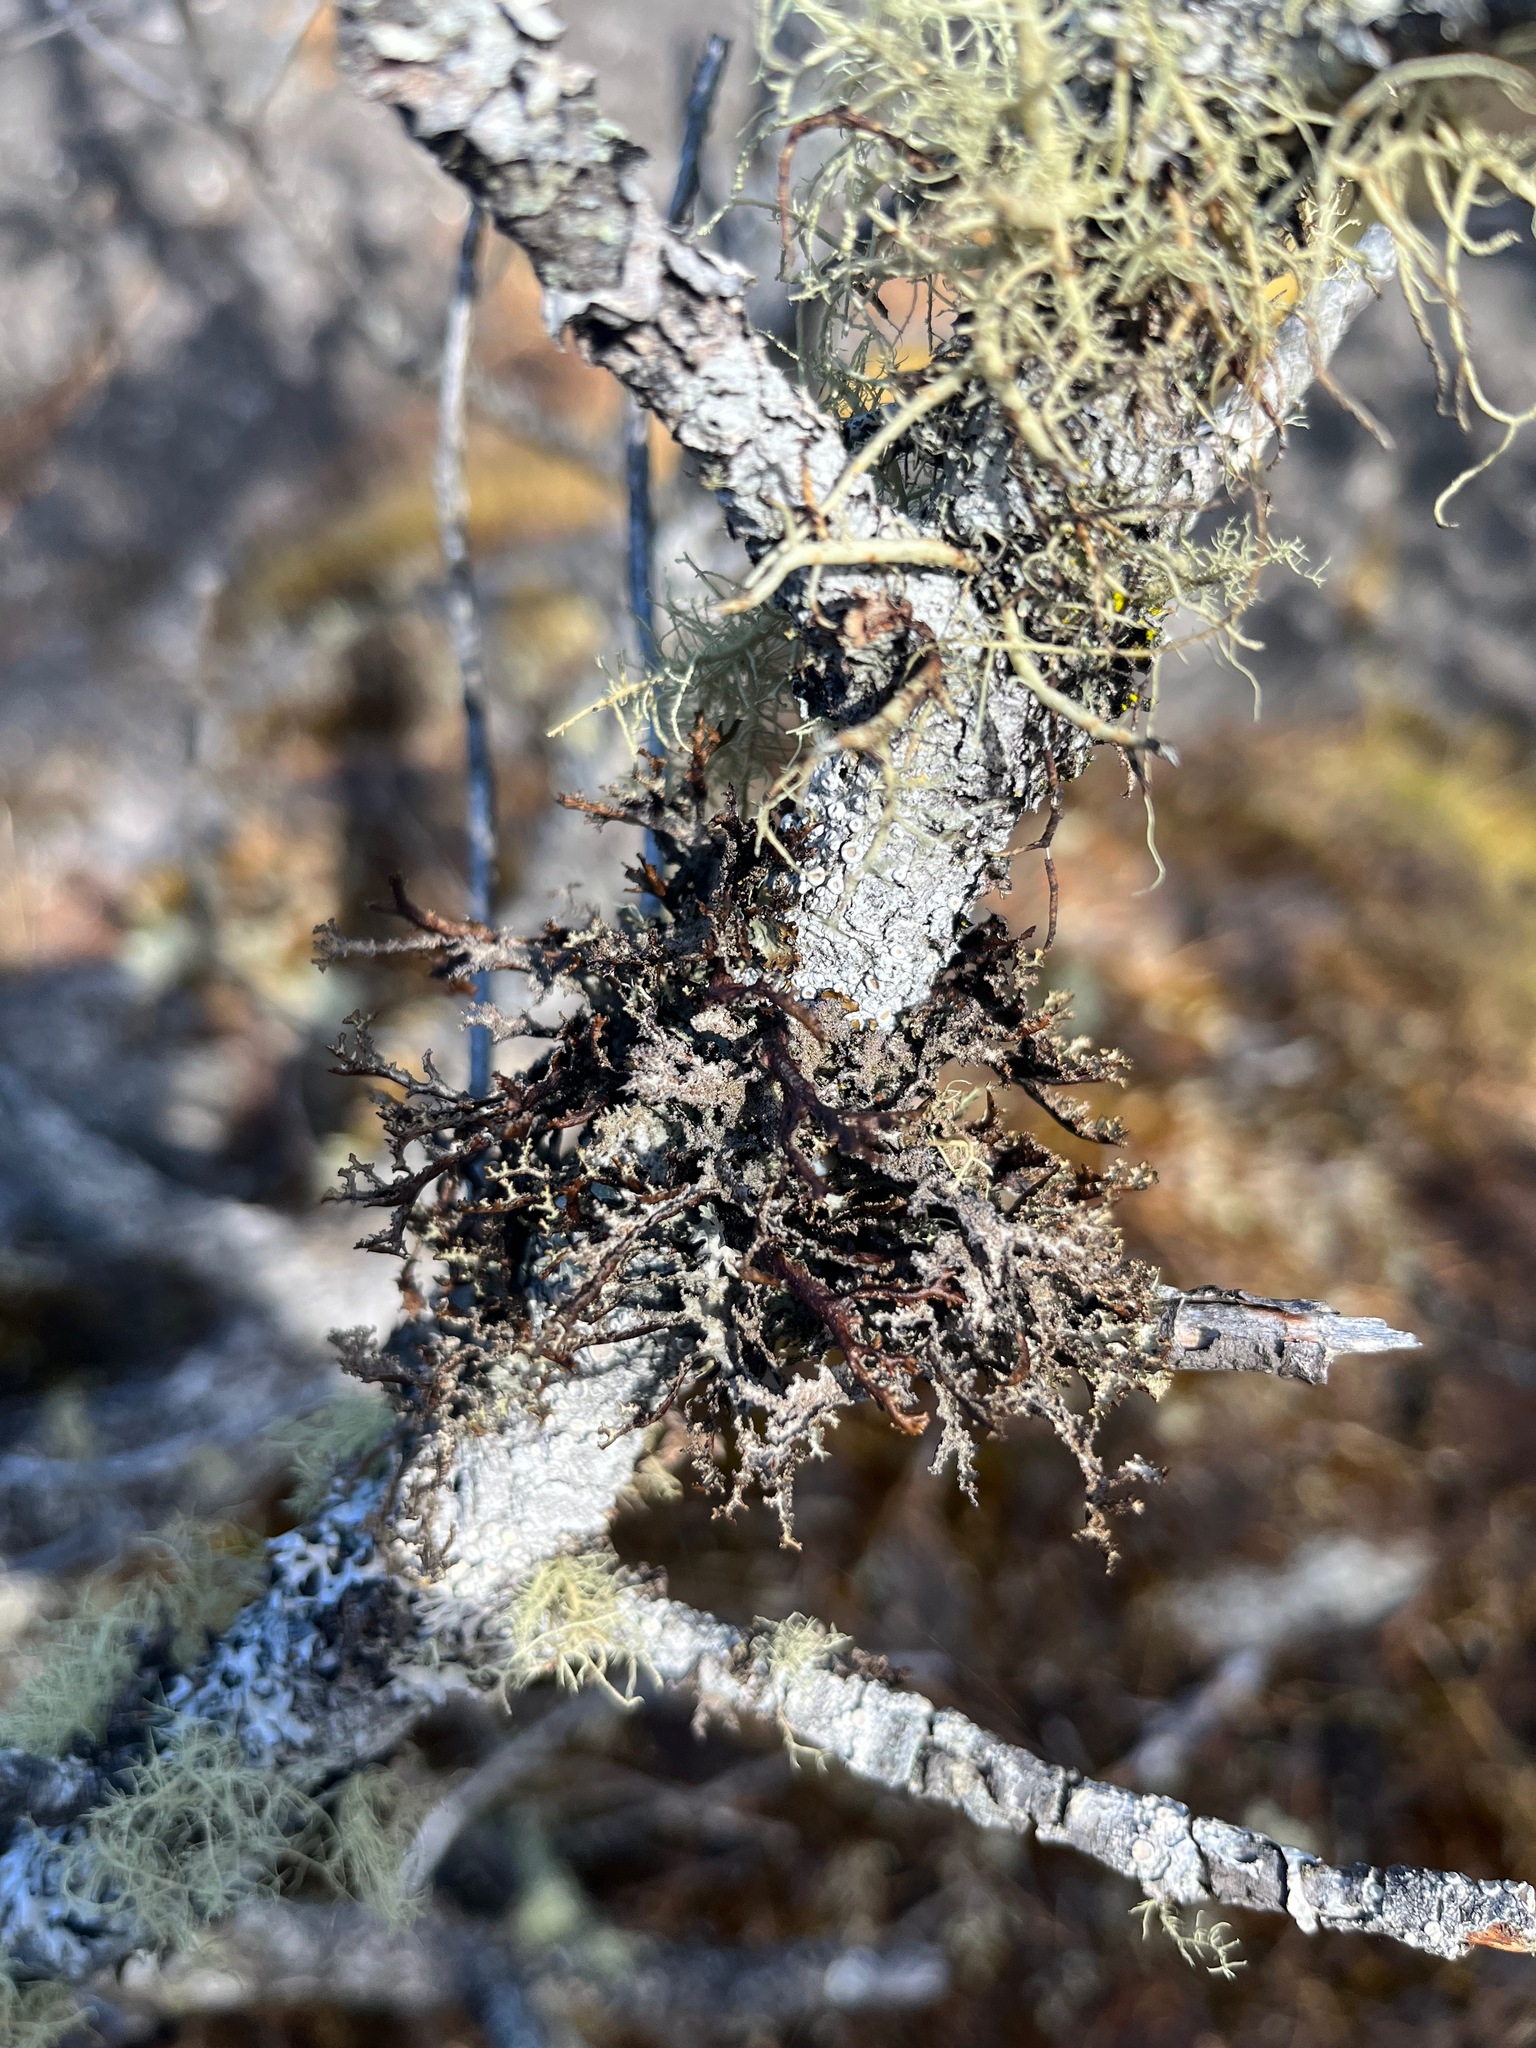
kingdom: Fungi
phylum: Ascomycota
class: Lecanoromycetes
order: Lecanorales
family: Parmeliaceae
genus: Platismatia
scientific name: Platismatia herrei
